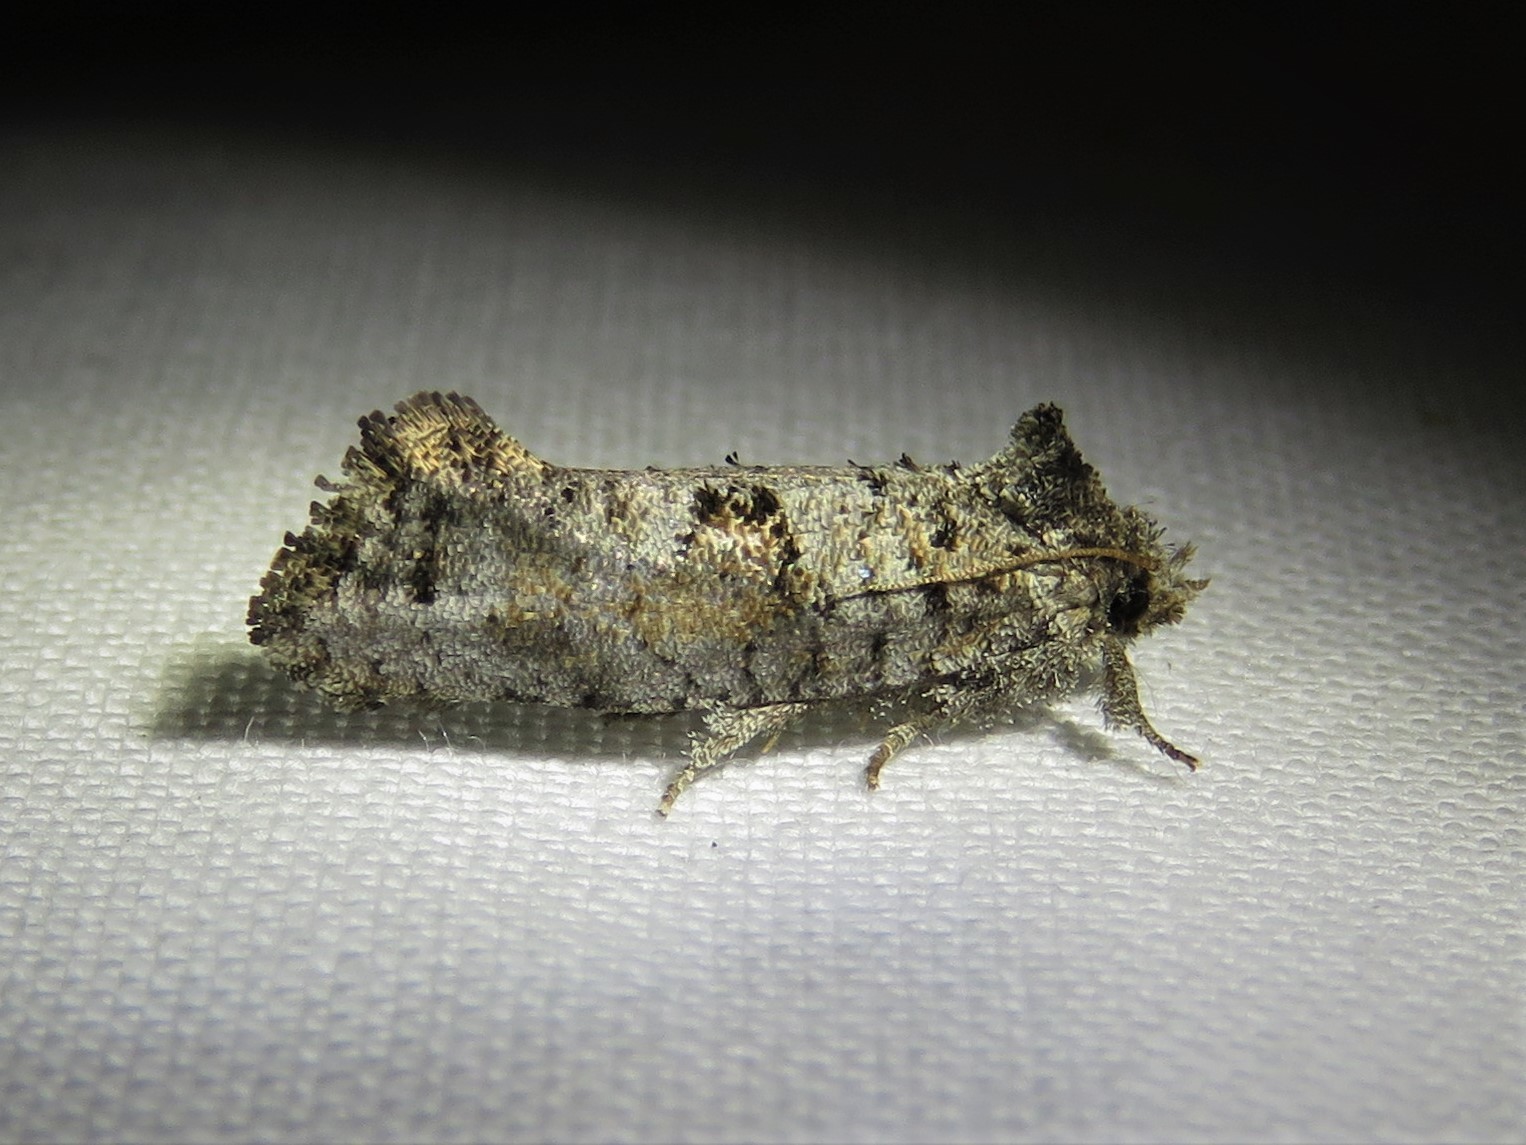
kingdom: Animalia
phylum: Arthropoda
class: Insecta
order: Lepidoptera
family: Tineidae
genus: Acrolophus
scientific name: Acrolophus piger
